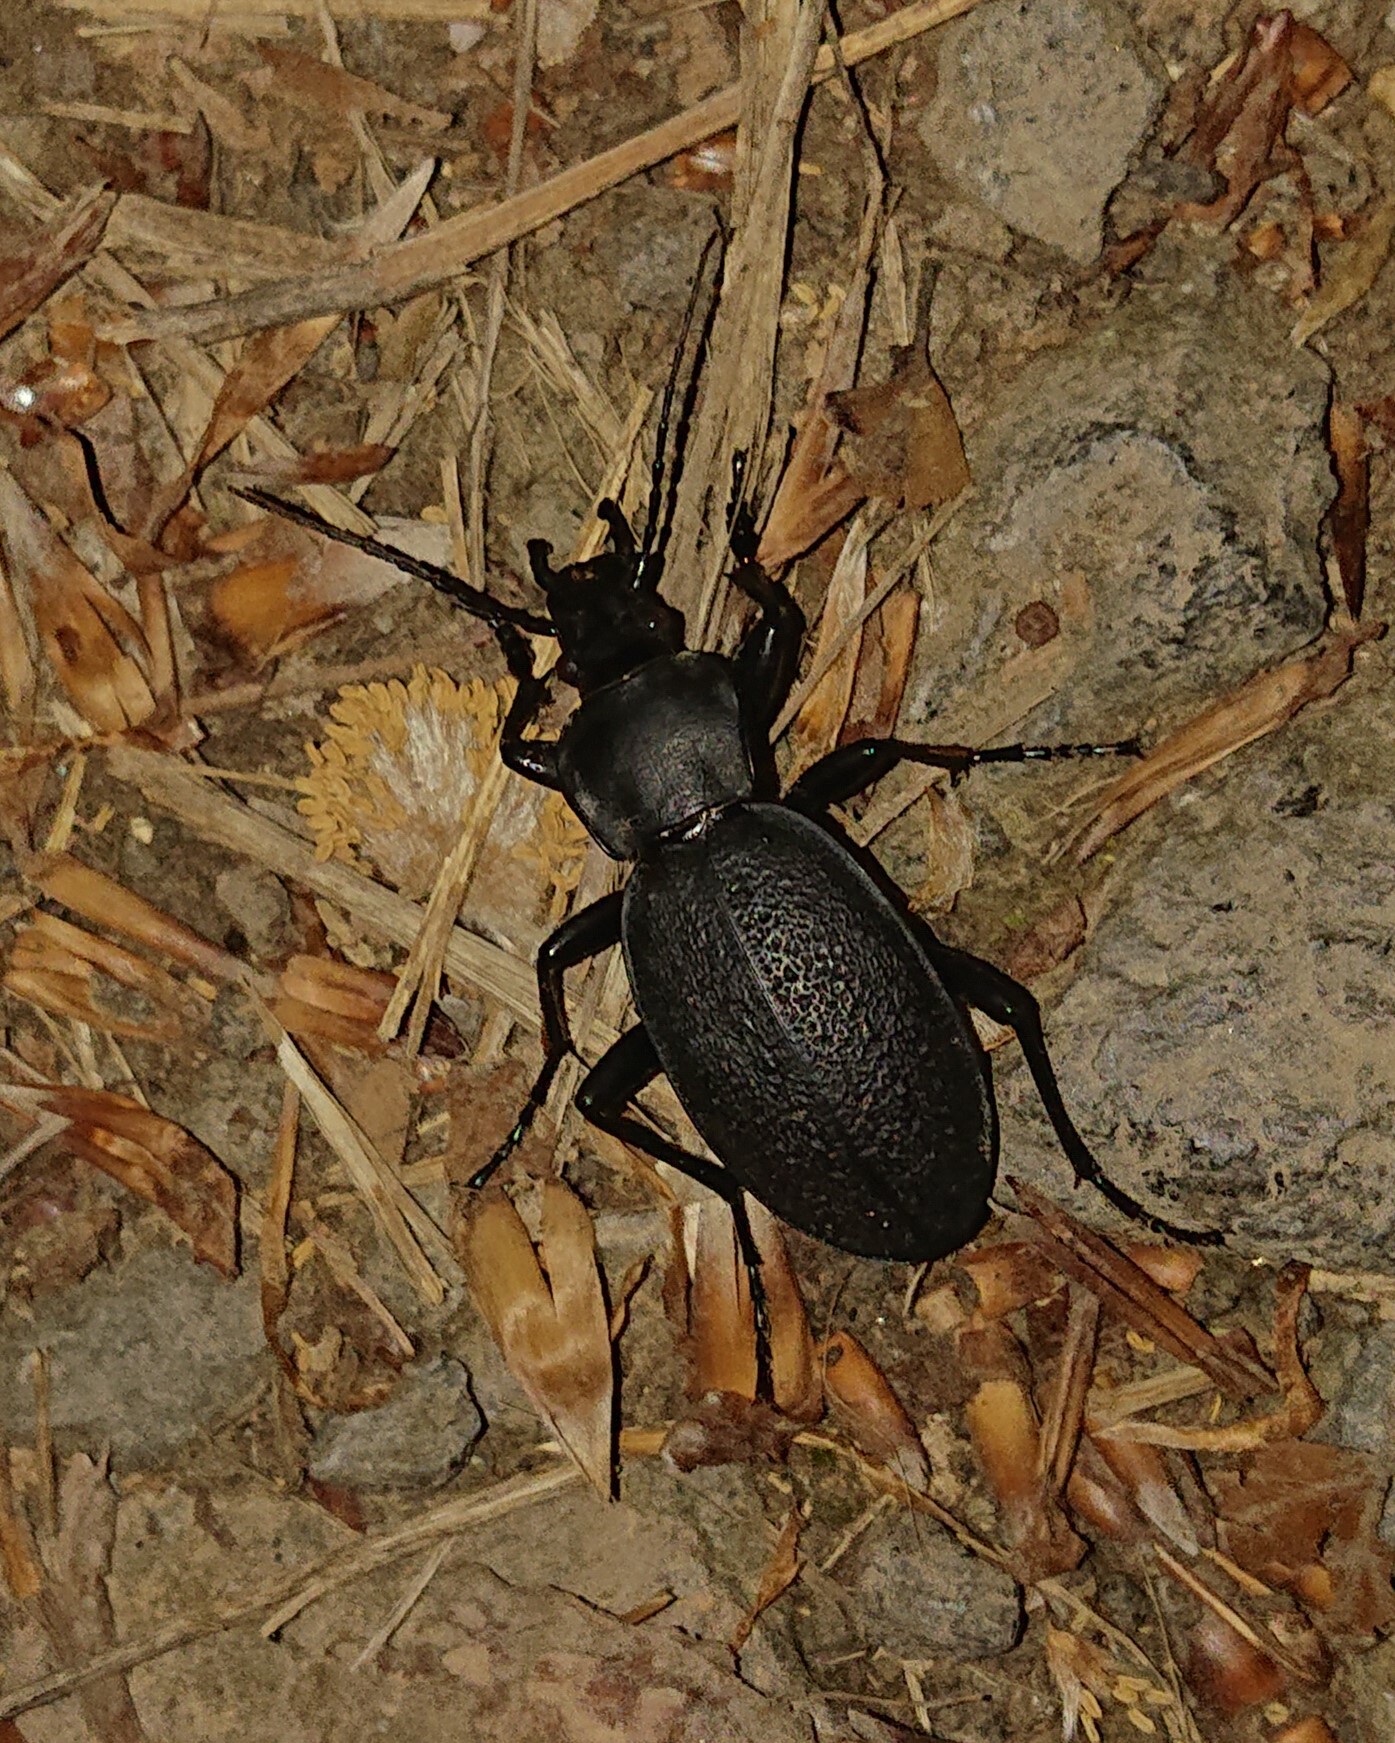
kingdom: Animalia
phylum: Arthropoda
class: Insecta
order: Coleoptera
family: Carabidae
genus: Carabus
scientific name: Carabus coriaceus
